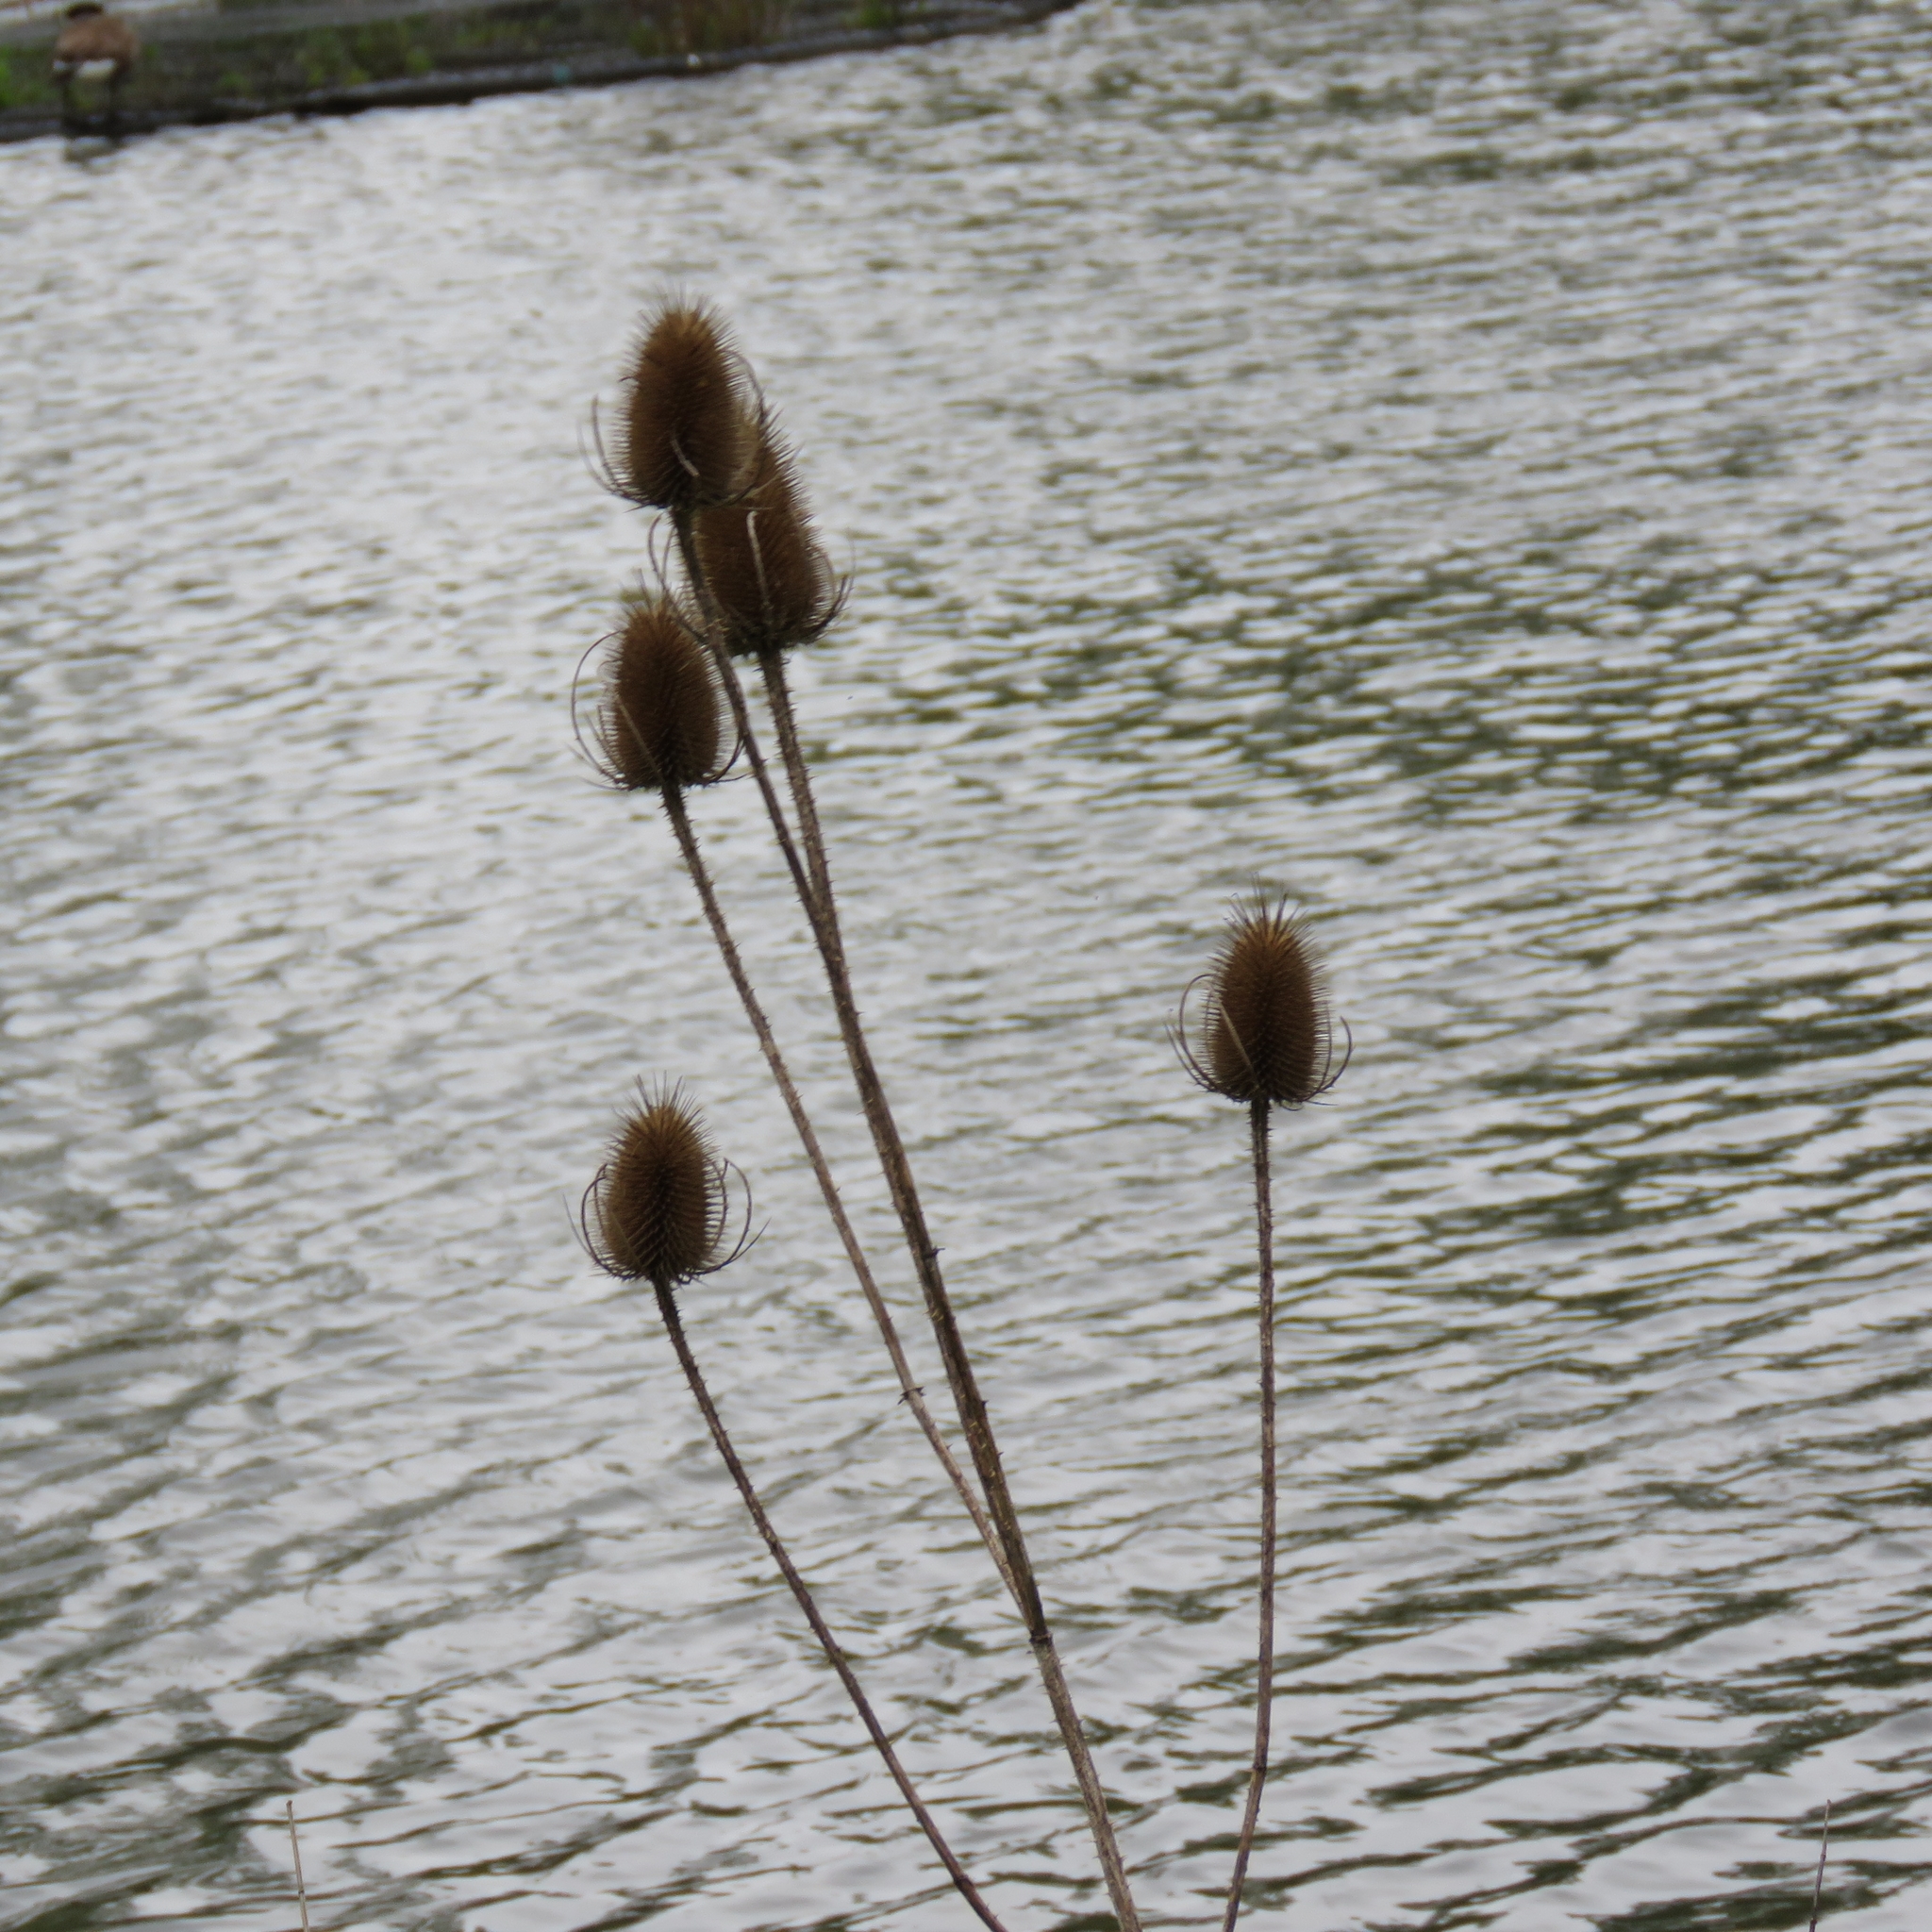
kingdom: Plantae
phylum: Tracheophyta
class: Magnoliopsida
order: Dipsacales
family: Caprifoliaceae
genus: Dipsacus
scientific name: Dipsacus fullonum
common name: Teasel
